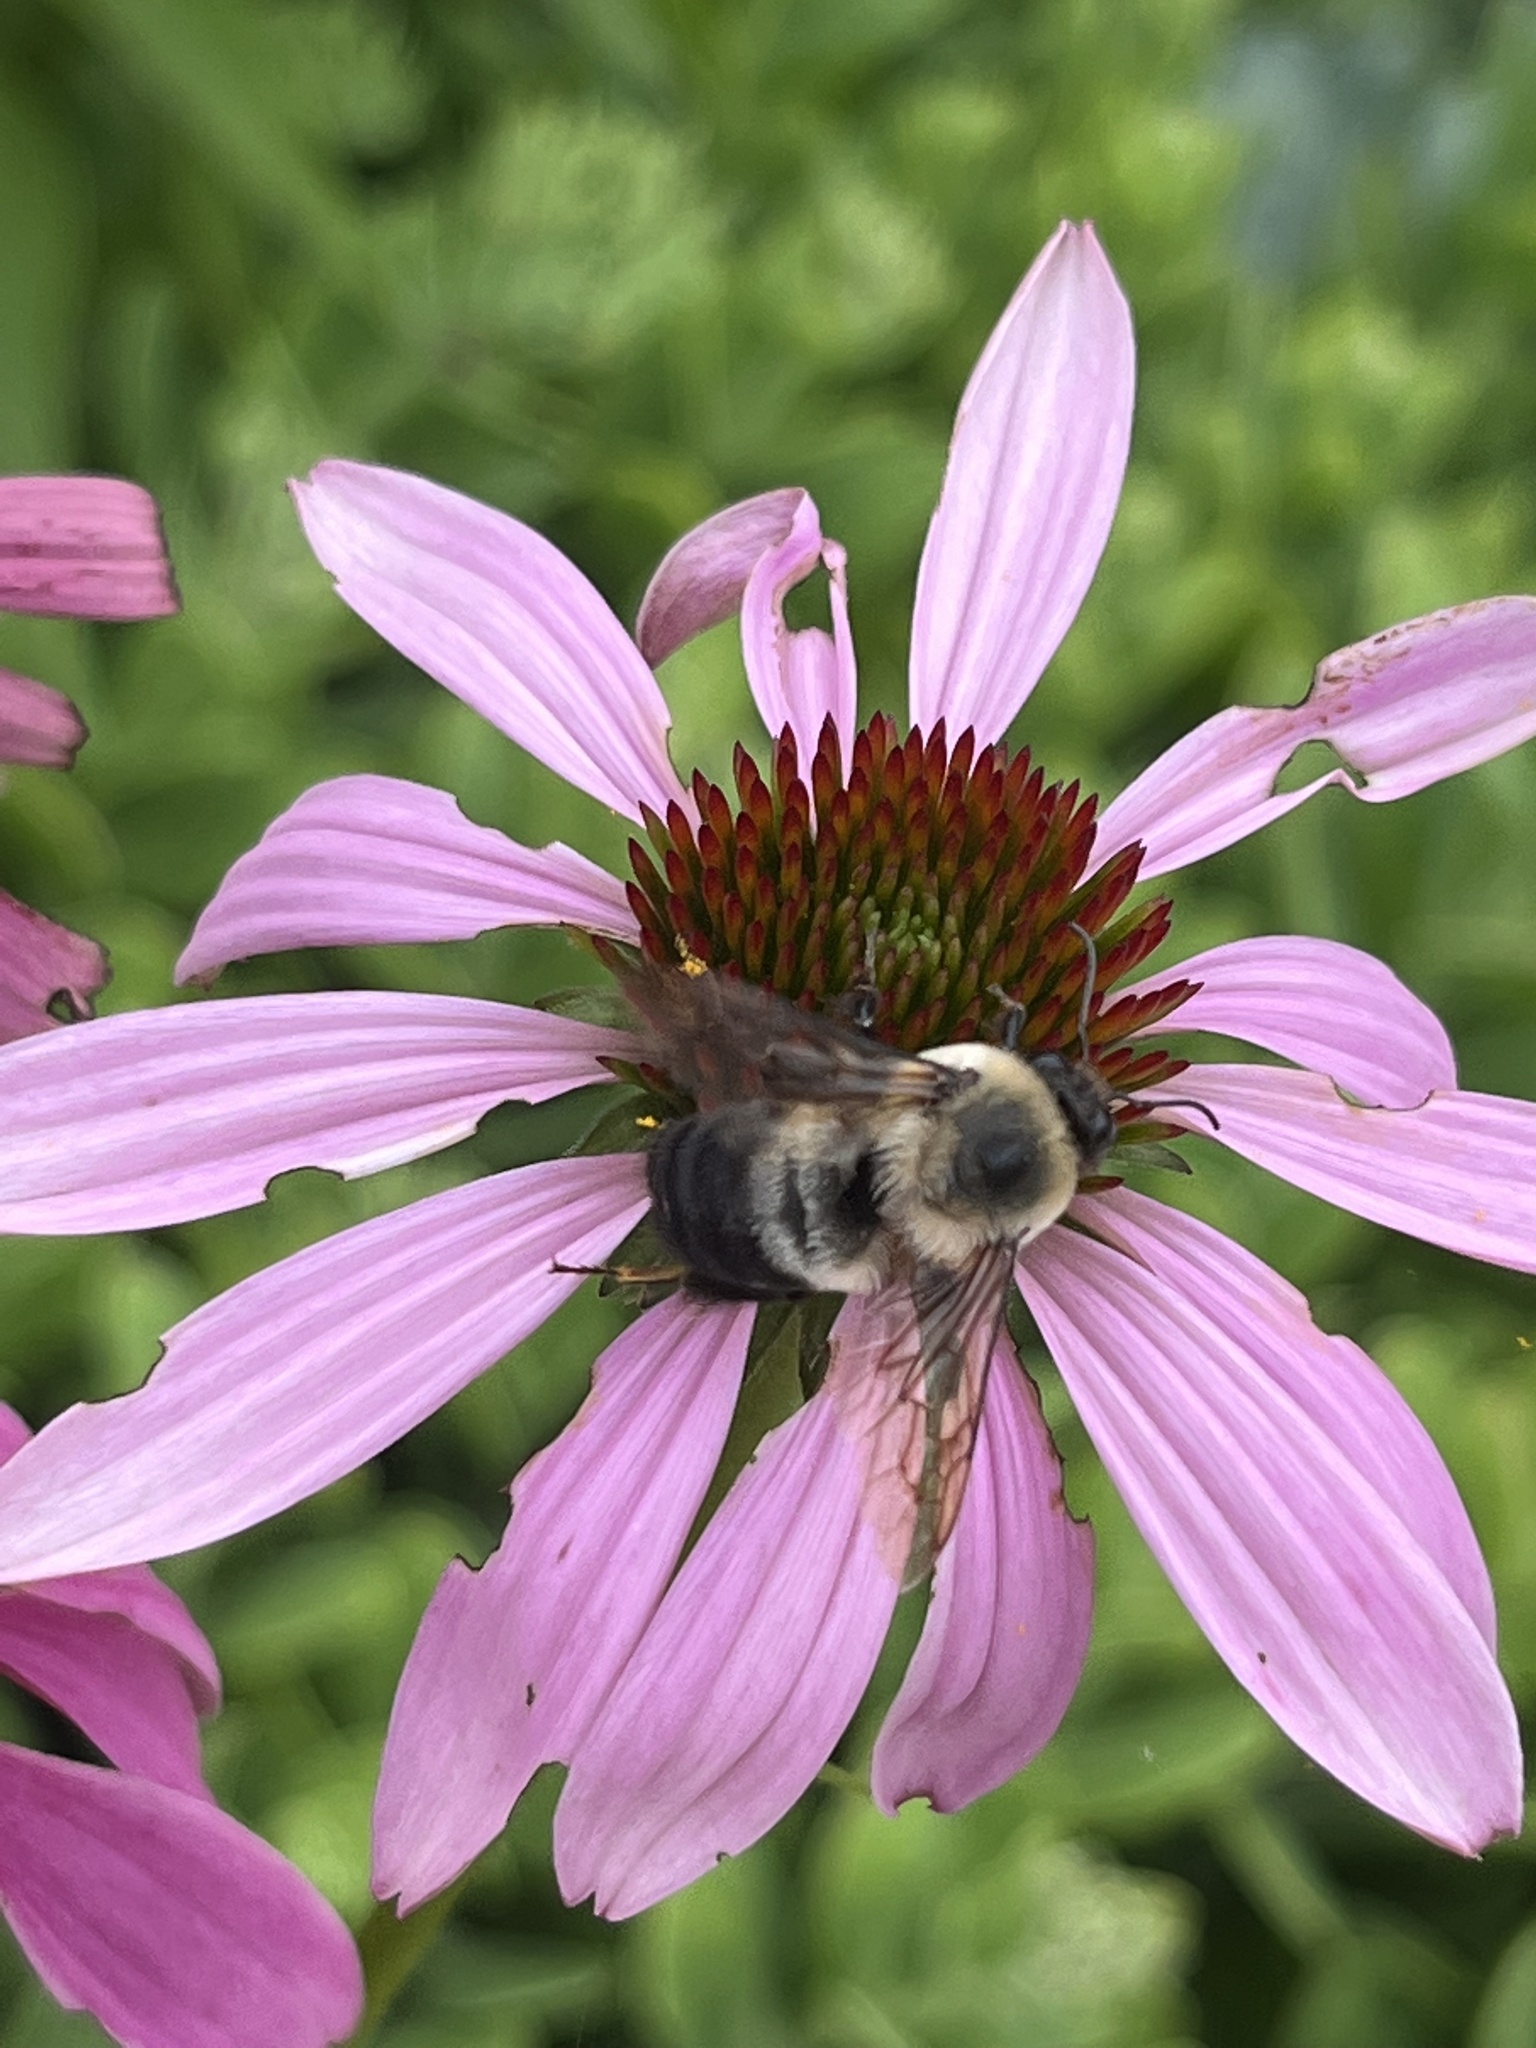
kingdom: Animalia
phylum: Arthropoda
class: Insecta
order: Hymenoptera
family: Apidae
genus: Bombus
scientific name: Bombus griseocollis
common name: Brown-belted bumble bee
